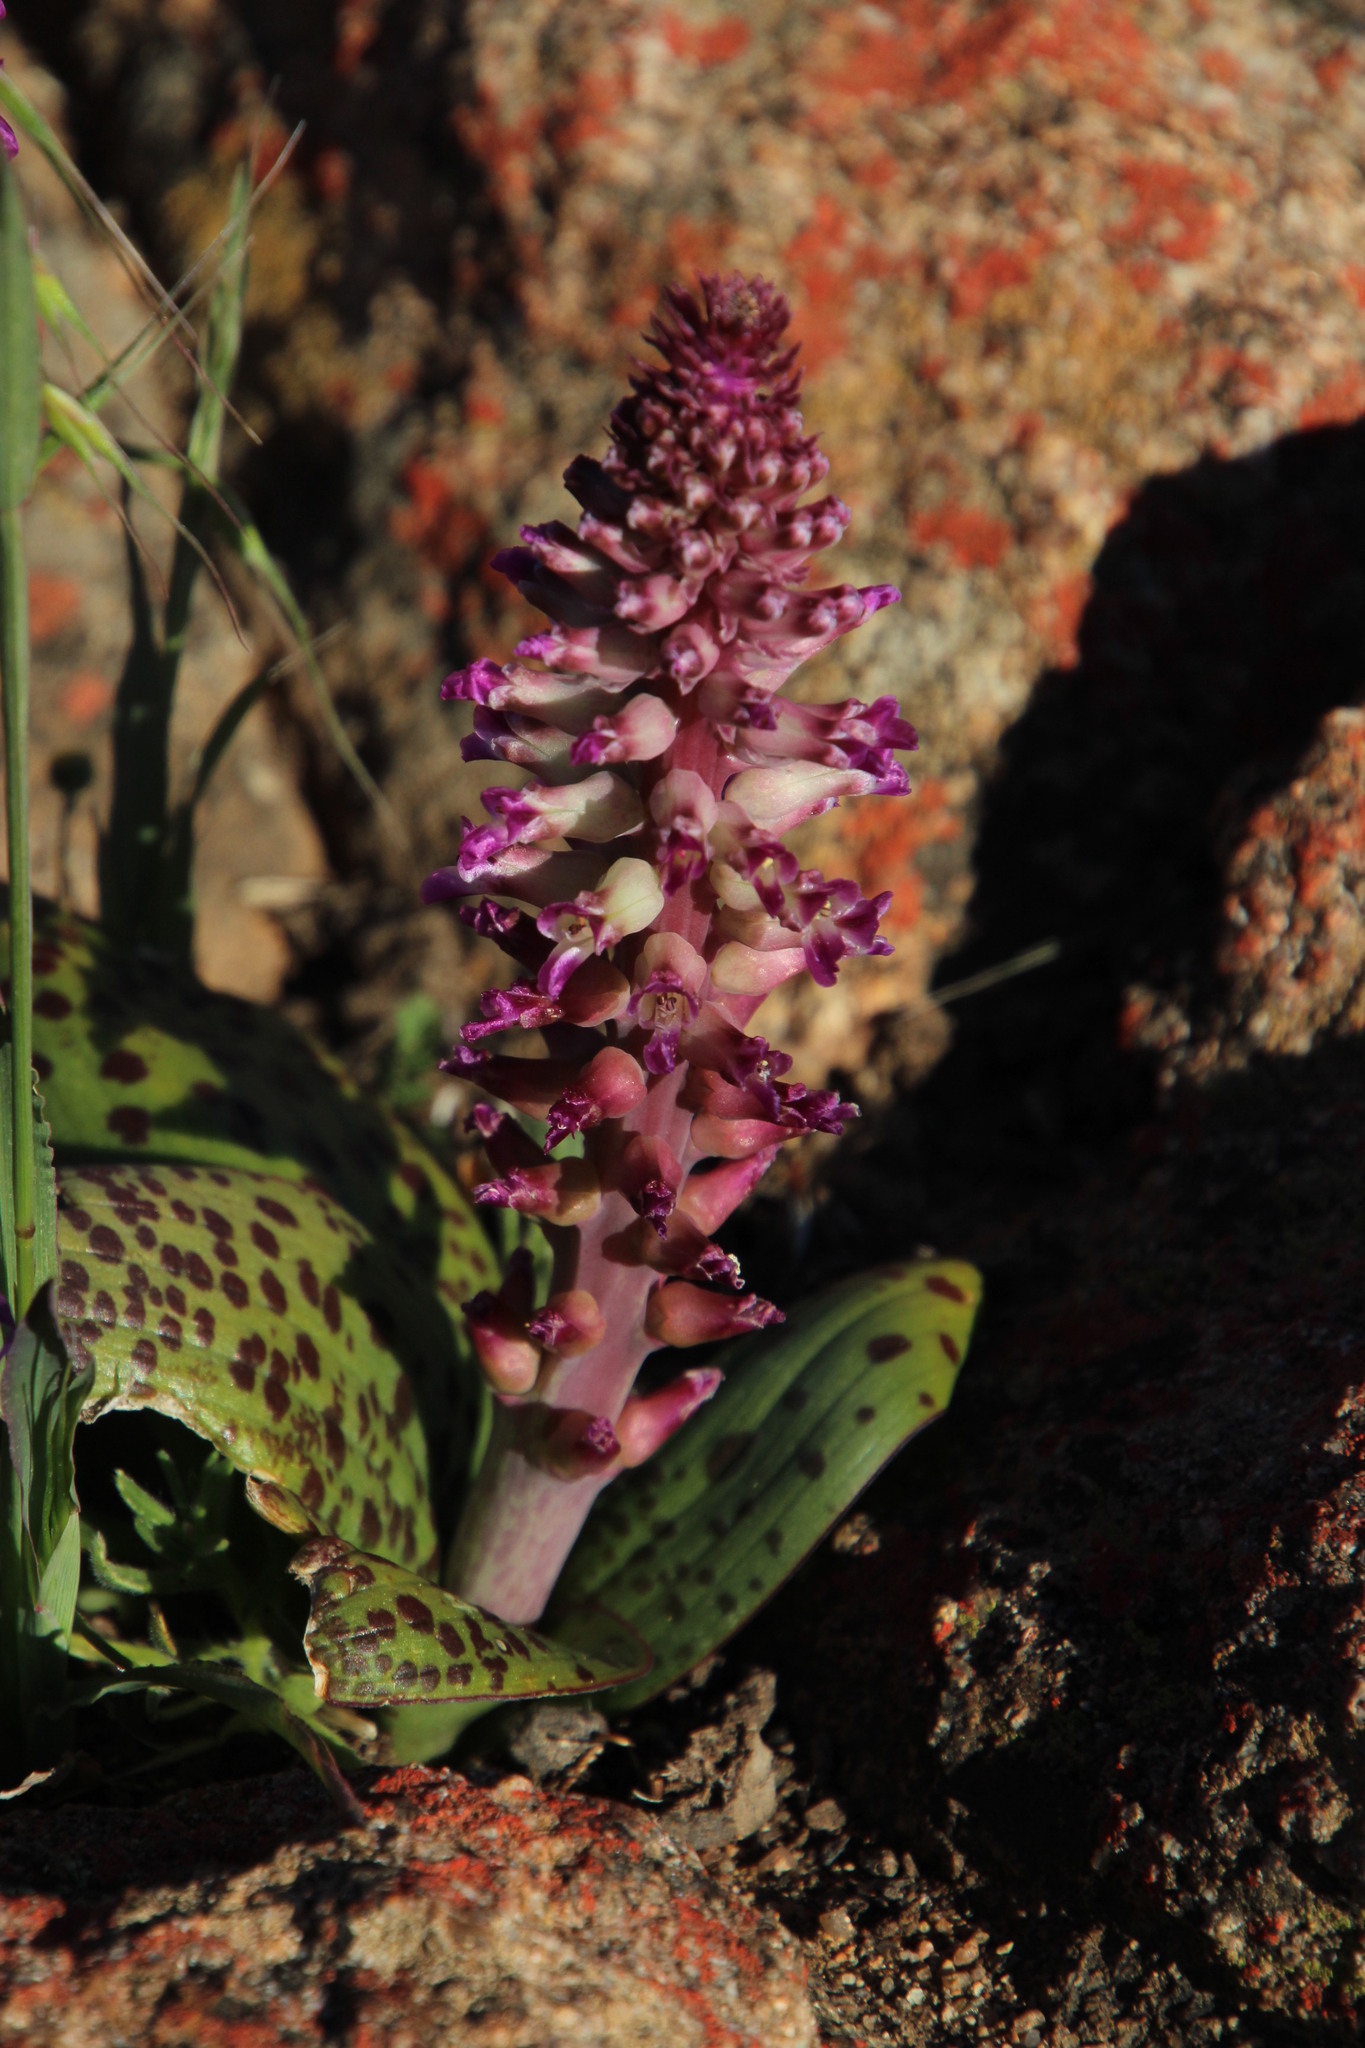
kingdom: Plantae
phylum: Tracheophyta
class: Liliopsida
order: Asparagales
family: Asparagaceae
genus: Lachenalia
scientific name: Lachenalia carnosa
